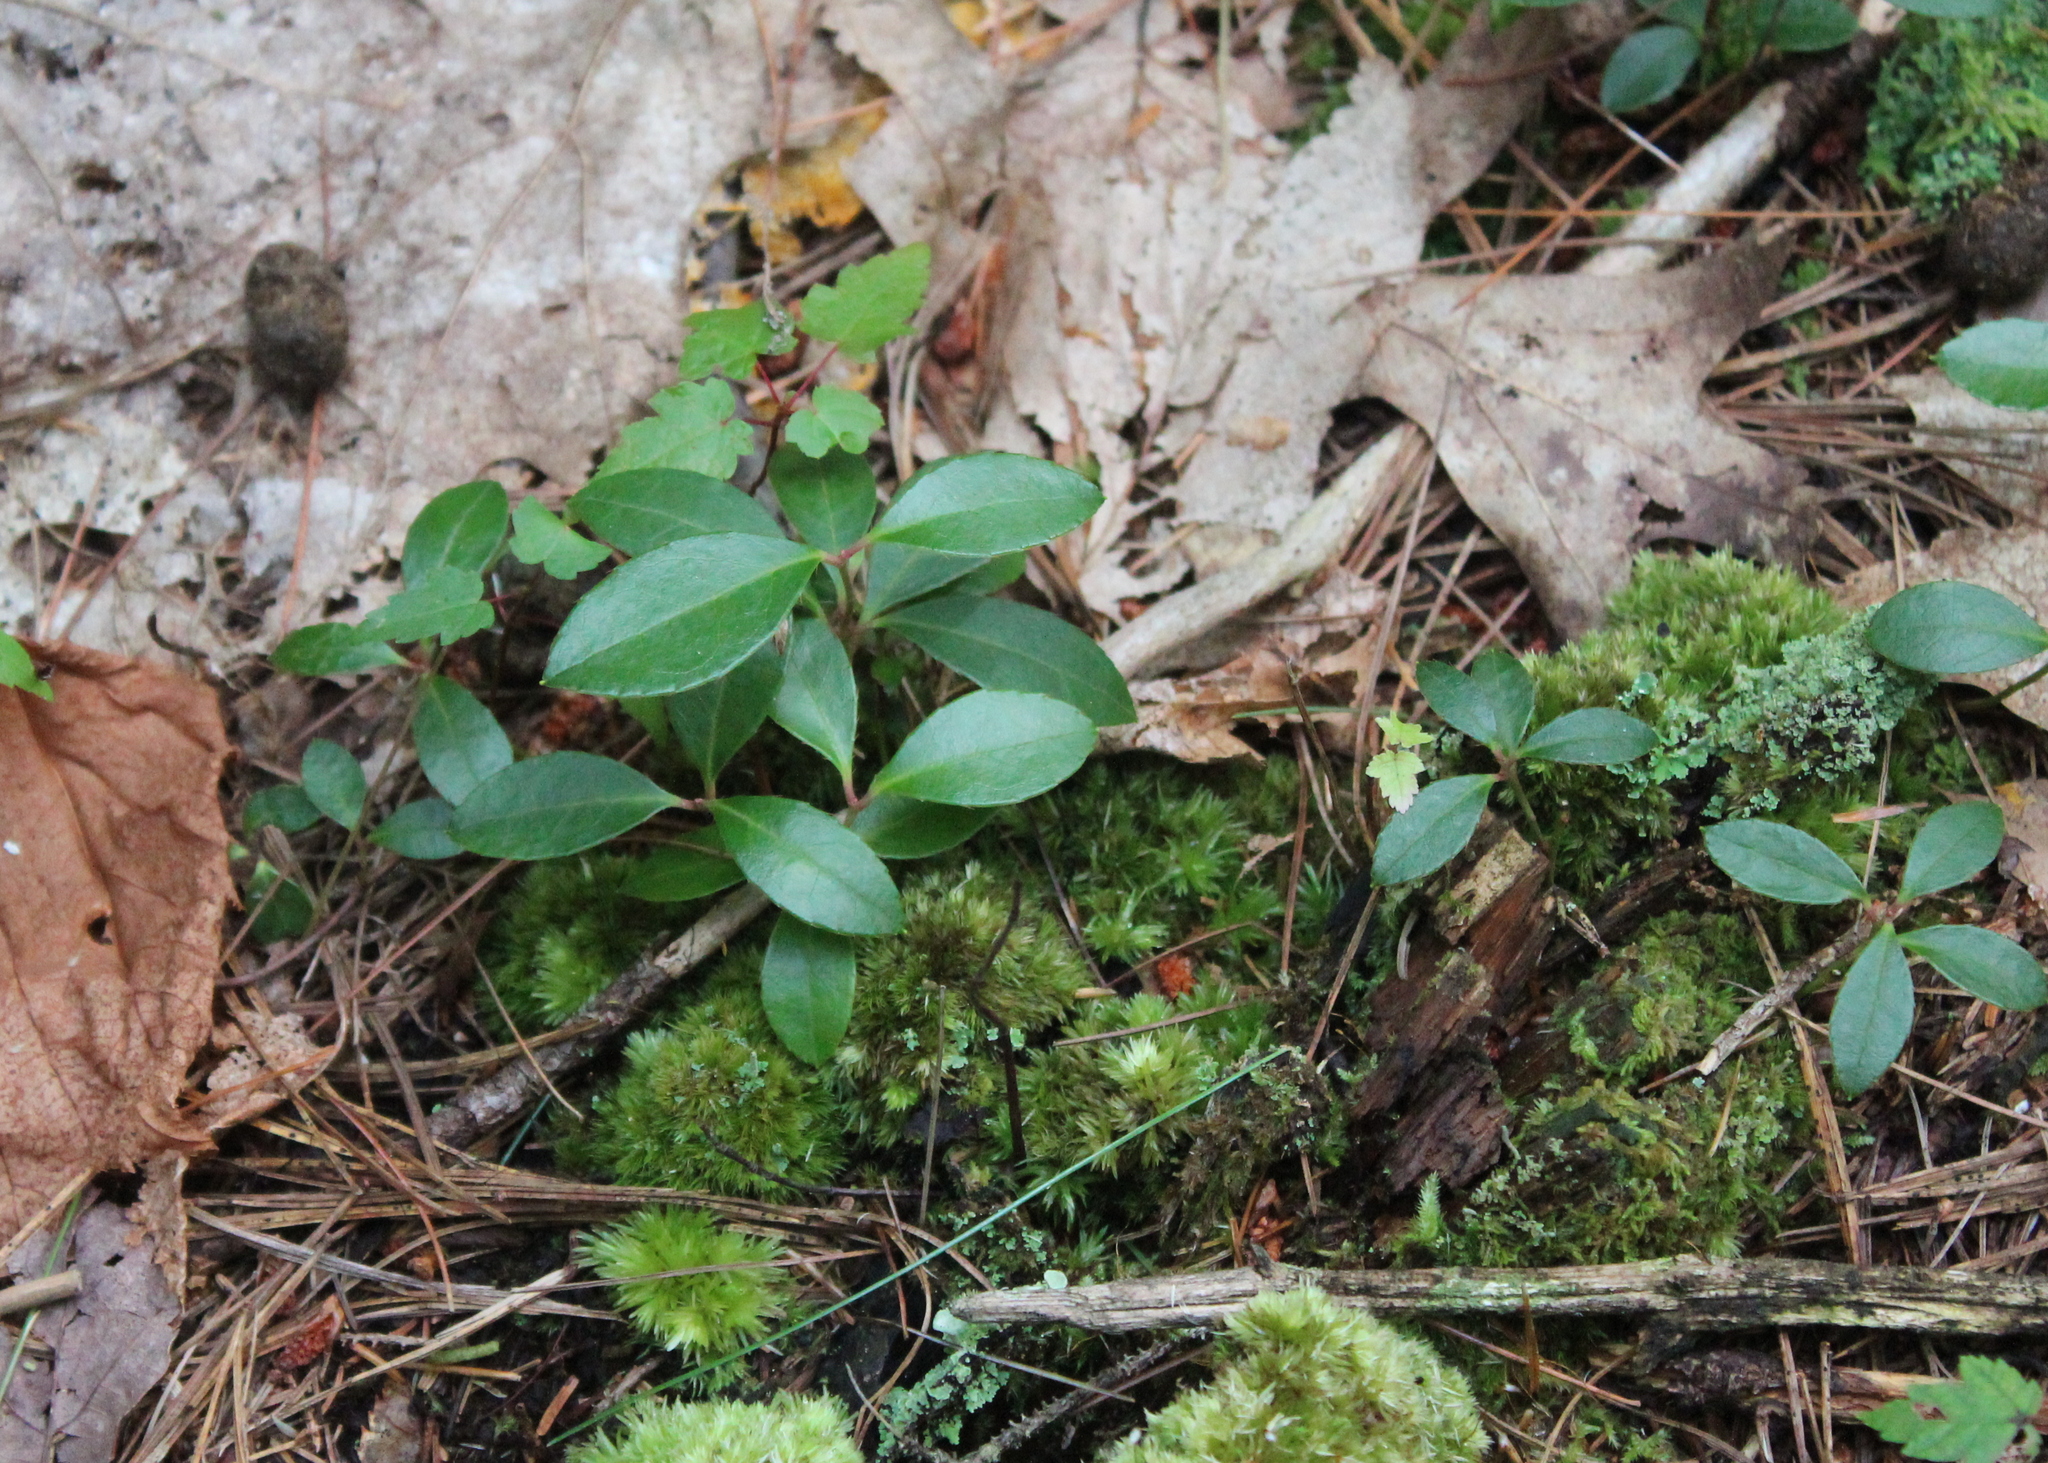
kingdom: Plantae
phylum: Tracheophyta
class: Magnoliopsida
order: Ericales
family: Ericaceae
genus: Gaultheria
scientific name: Gaultheria procumbens
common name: Checkerberry
